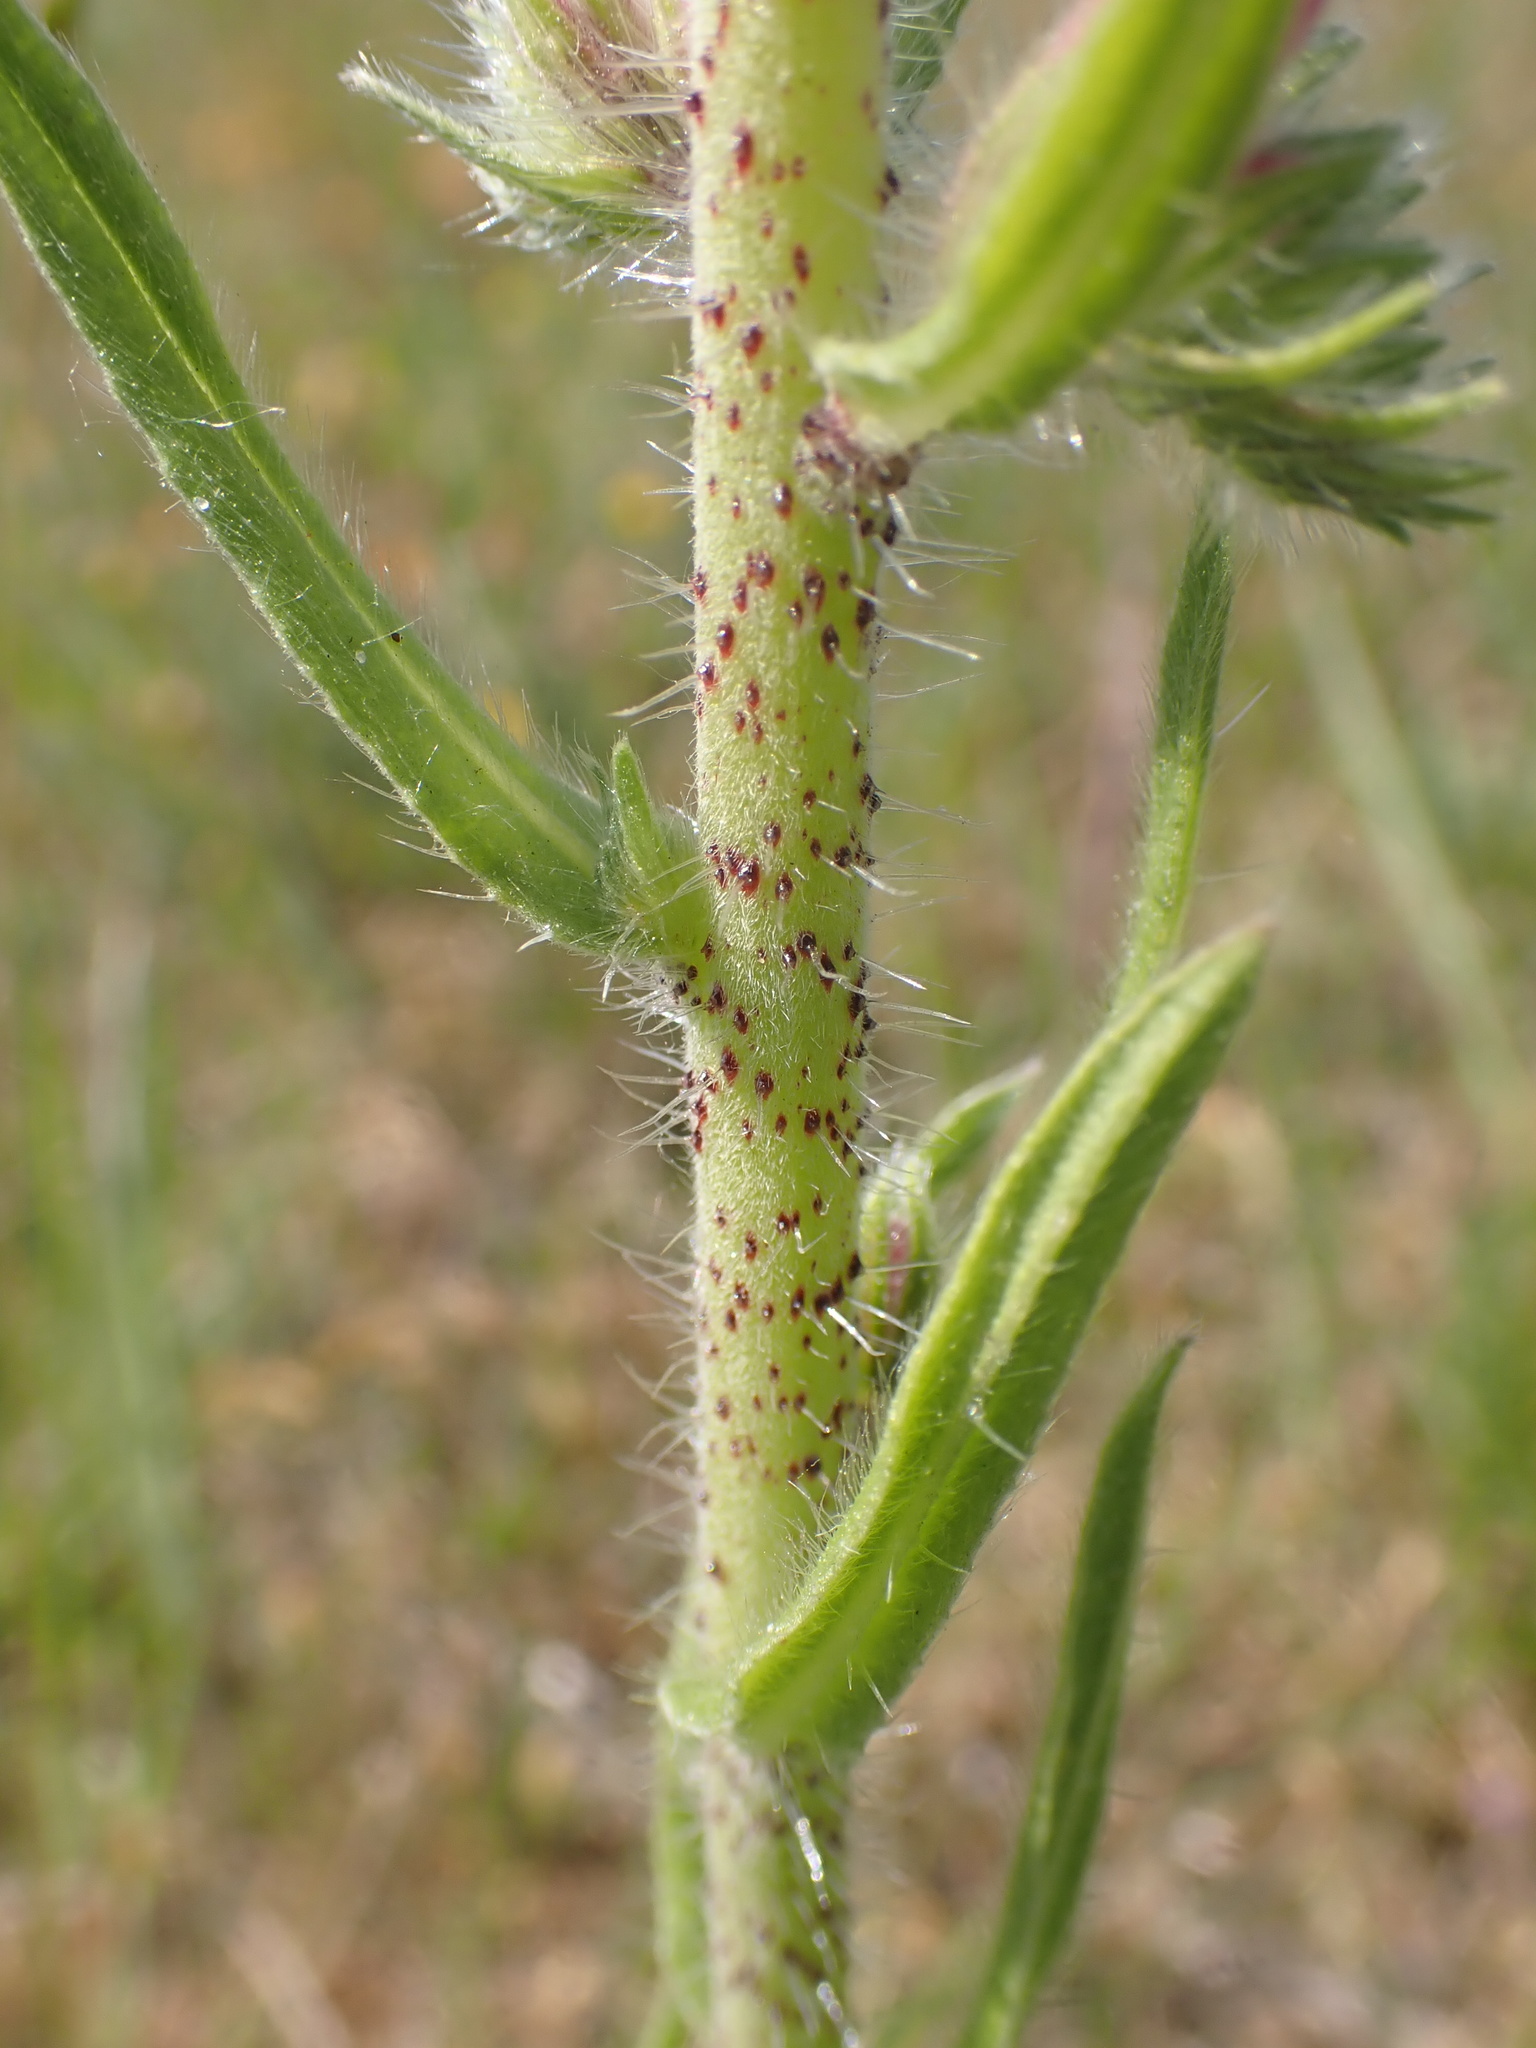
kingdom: Plantae
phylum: Tracheophyta
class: Magnoliopsida
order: Boraginales
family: Boraginaceae
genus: Echium
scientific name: Echium vulgare
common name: Common viper's bugloss
